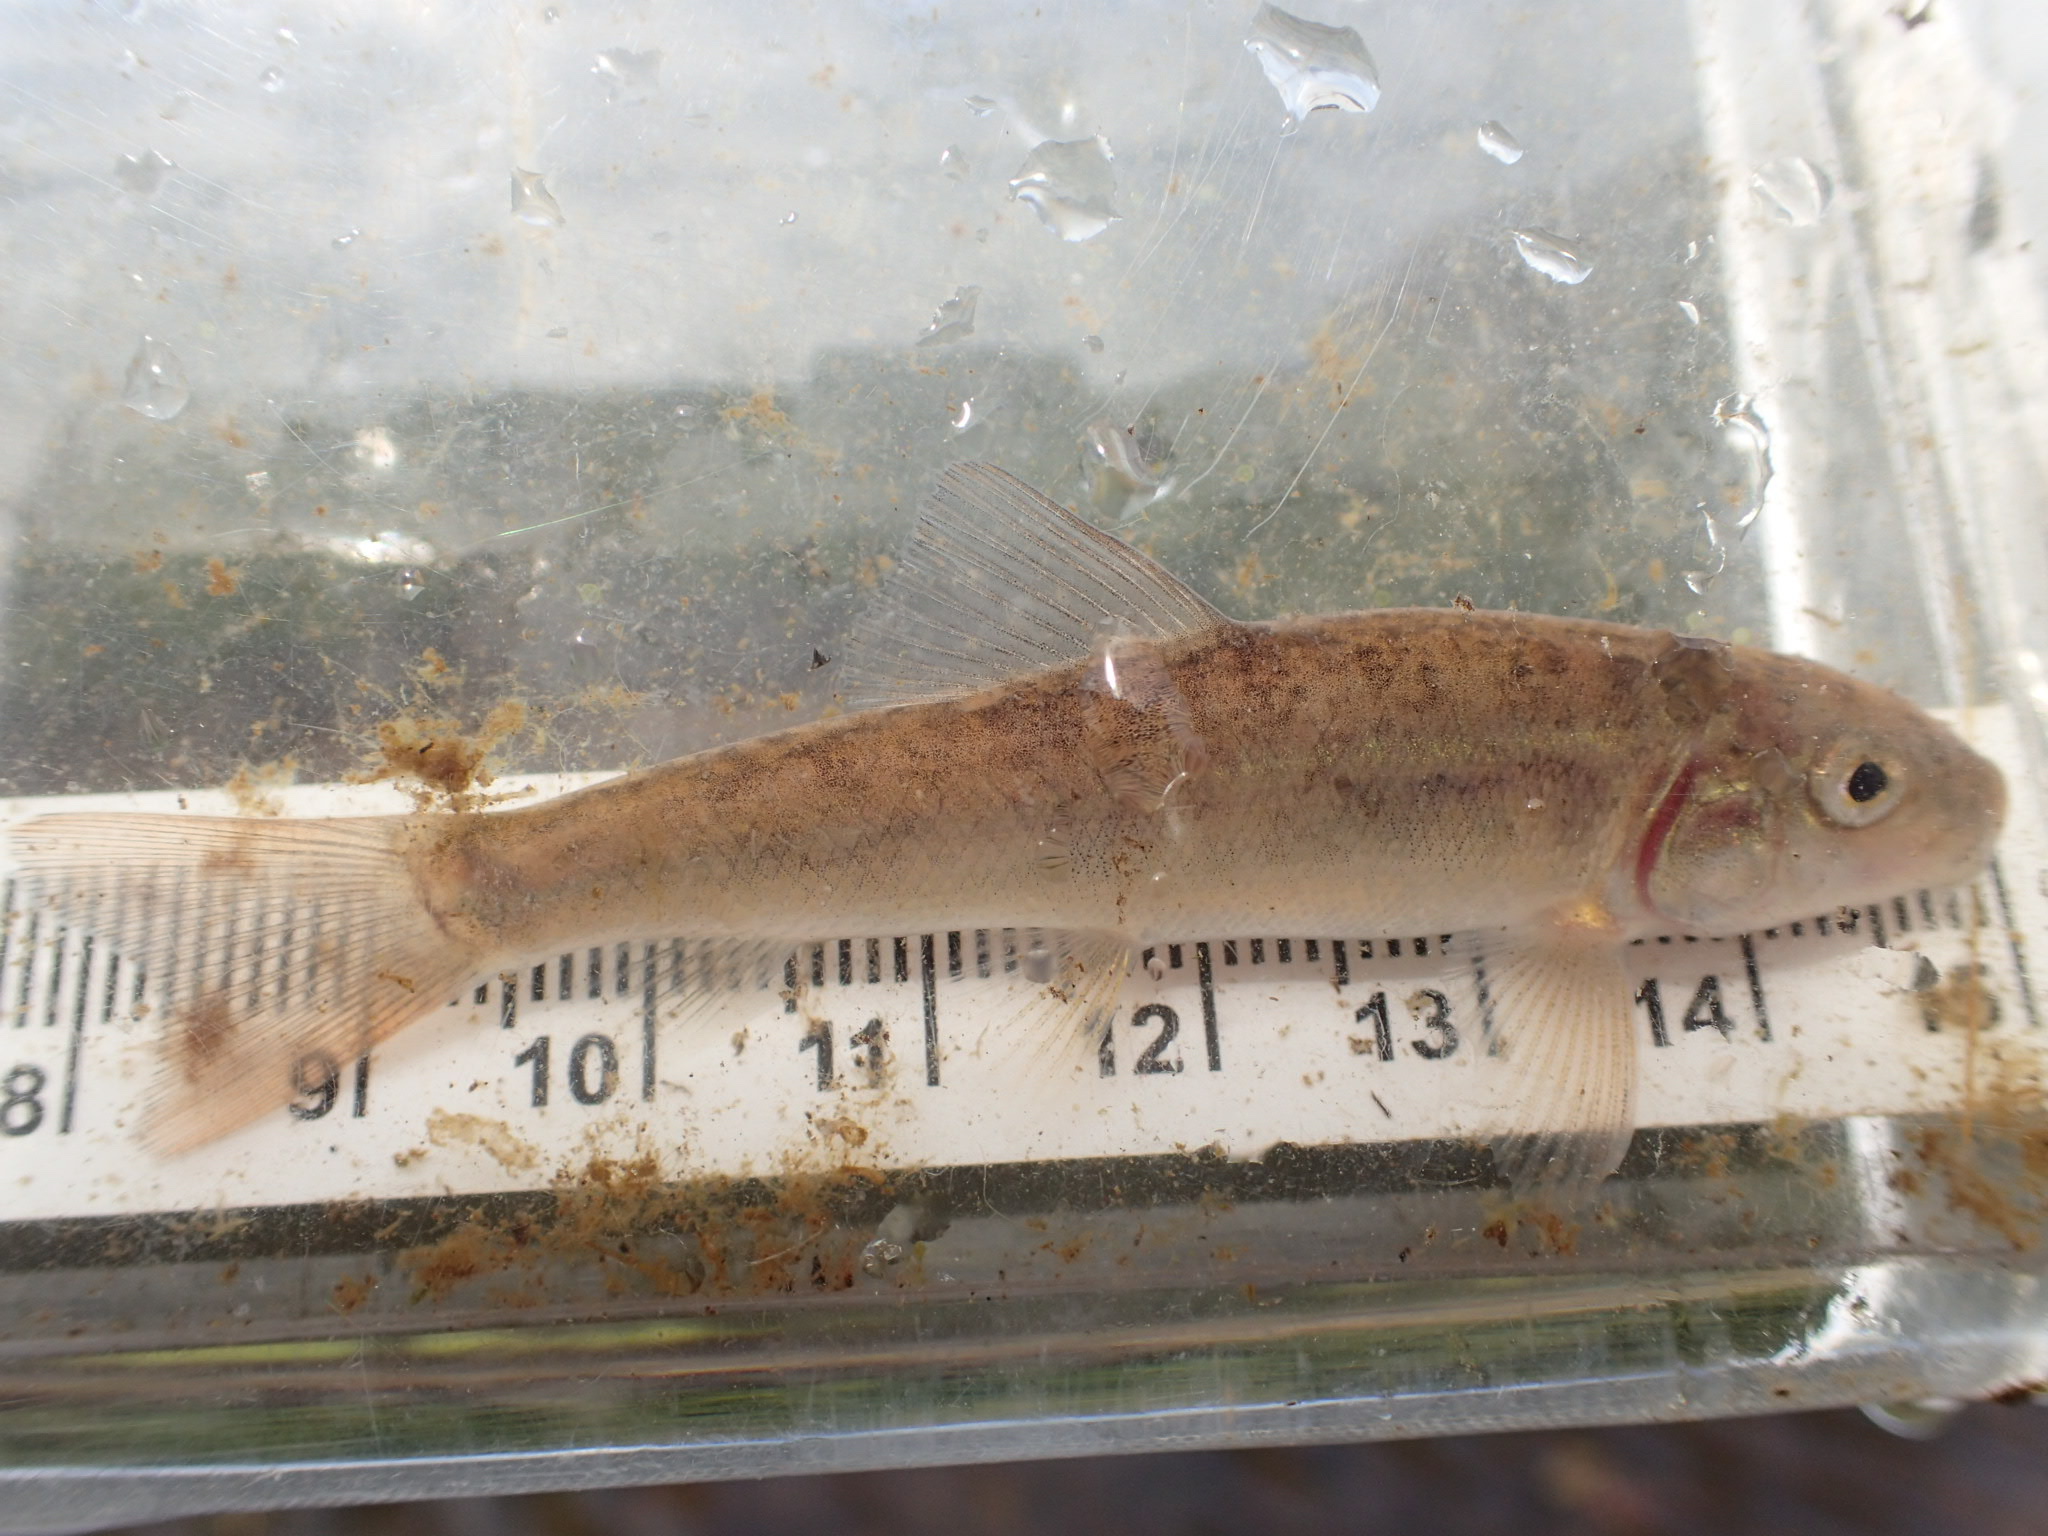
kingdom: Animalia
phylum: Chordata
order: Cypriniformes
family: Catostomidae
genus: Catostomus
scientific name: Catostomus commersonii
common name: White sucker
